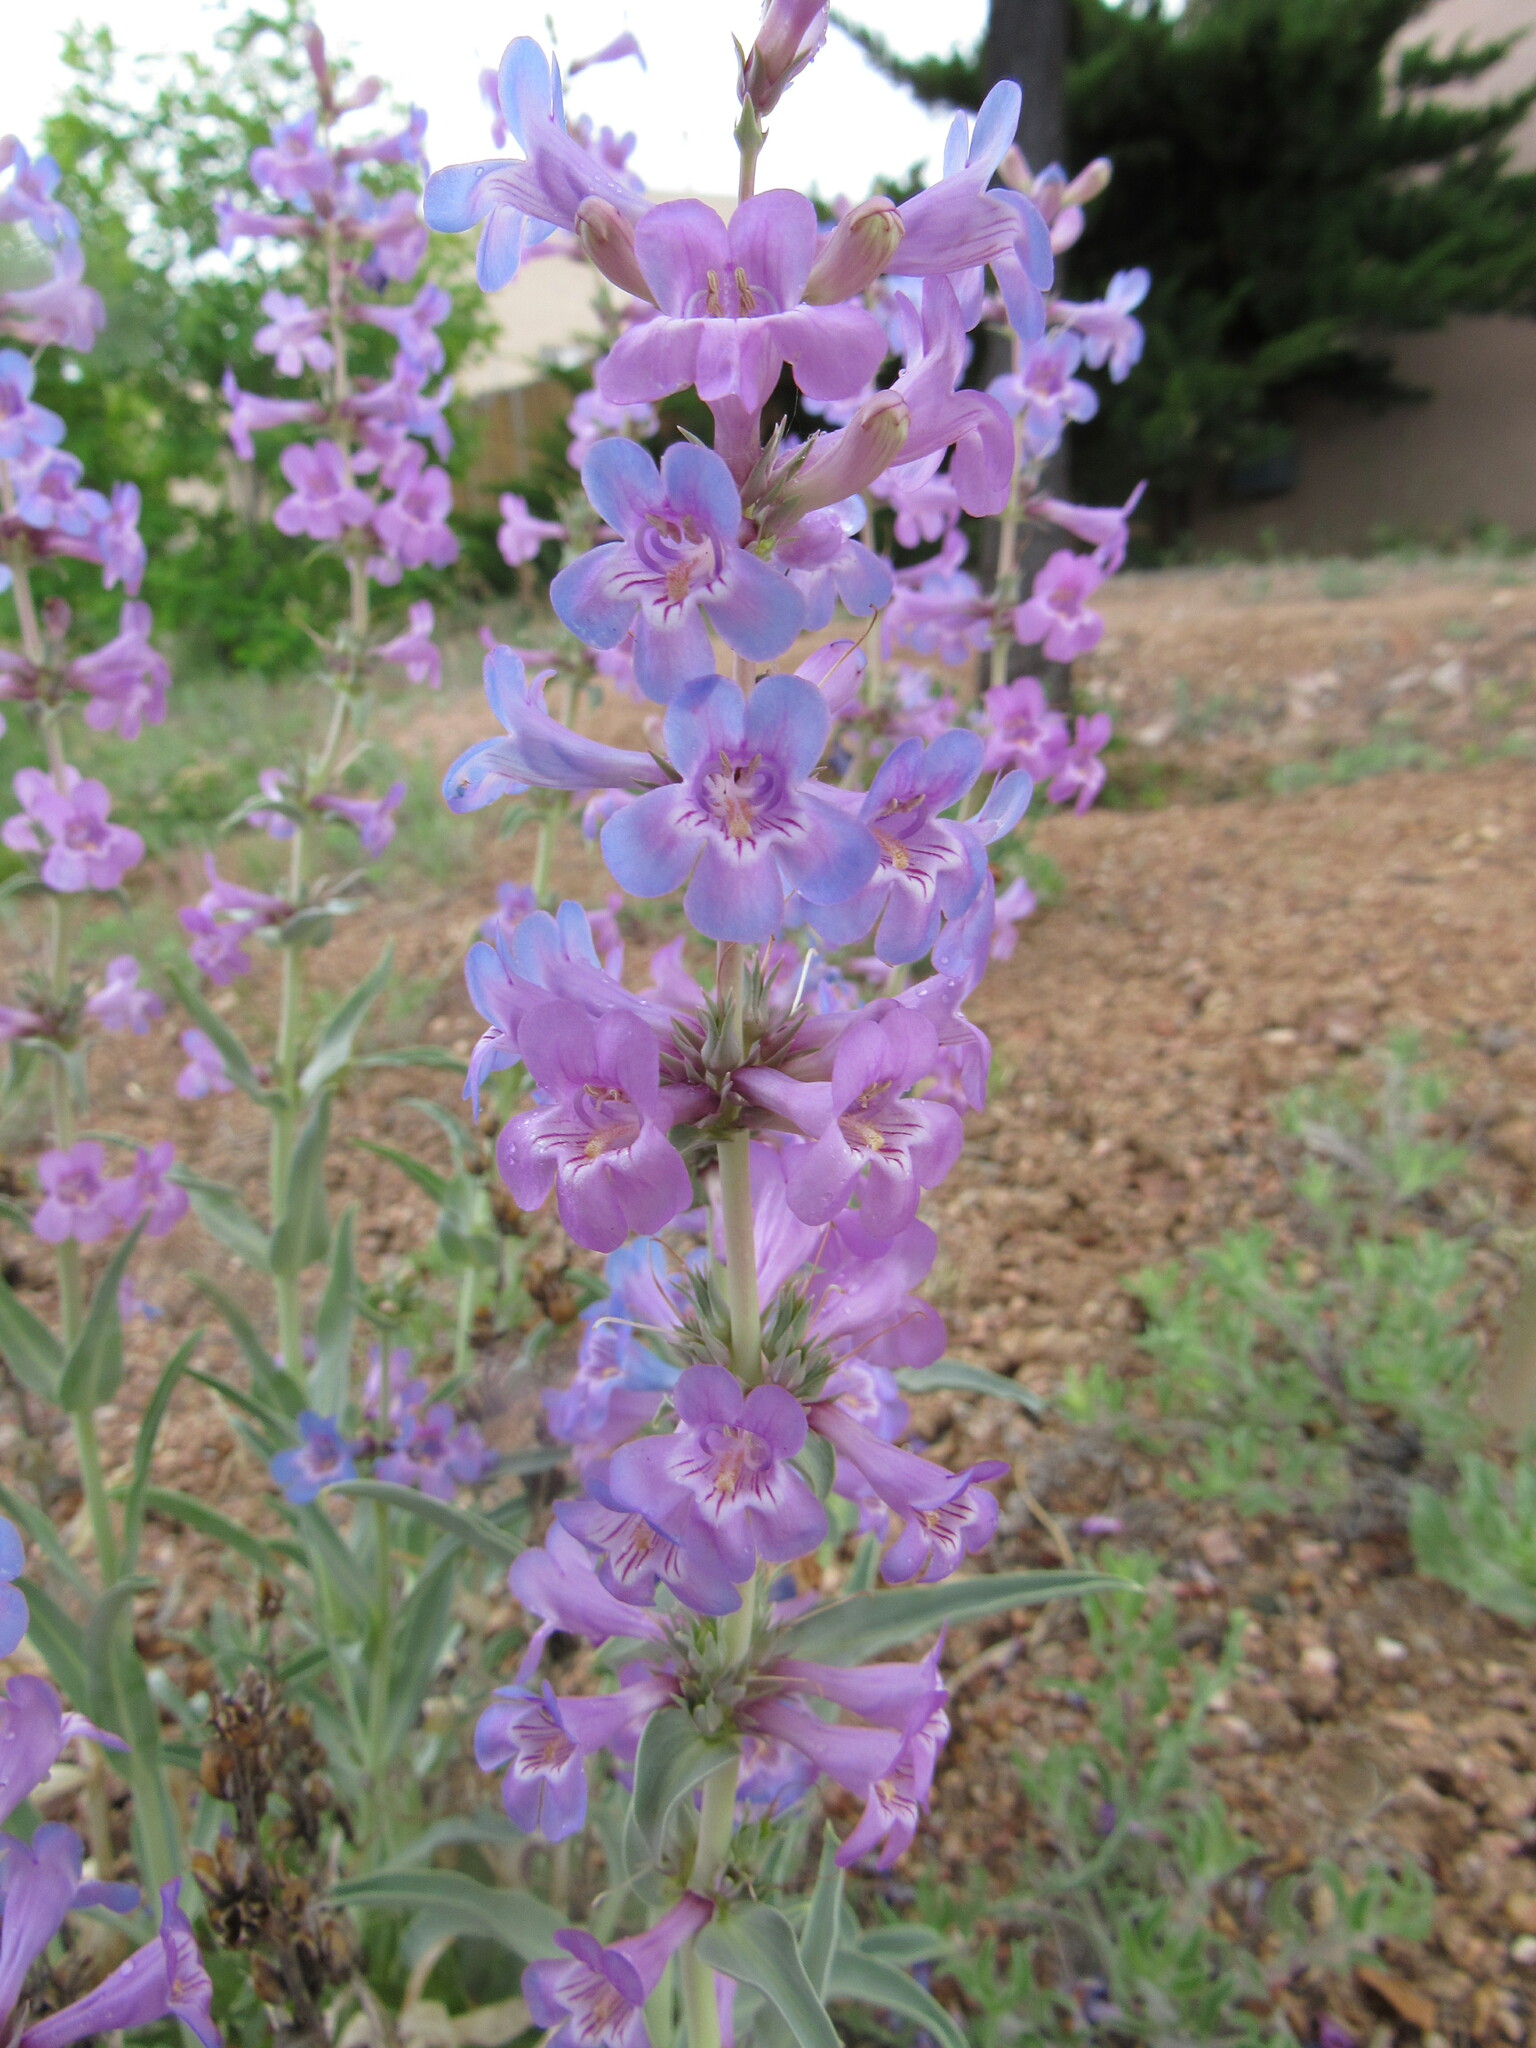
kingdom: Plantae
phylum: Tracheophyta
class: Magnoliopsida
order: Lamiales
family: Plantaginaceae
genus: Penstemon
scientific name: Penstemon angustifolius
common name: Narrow beardtongue
